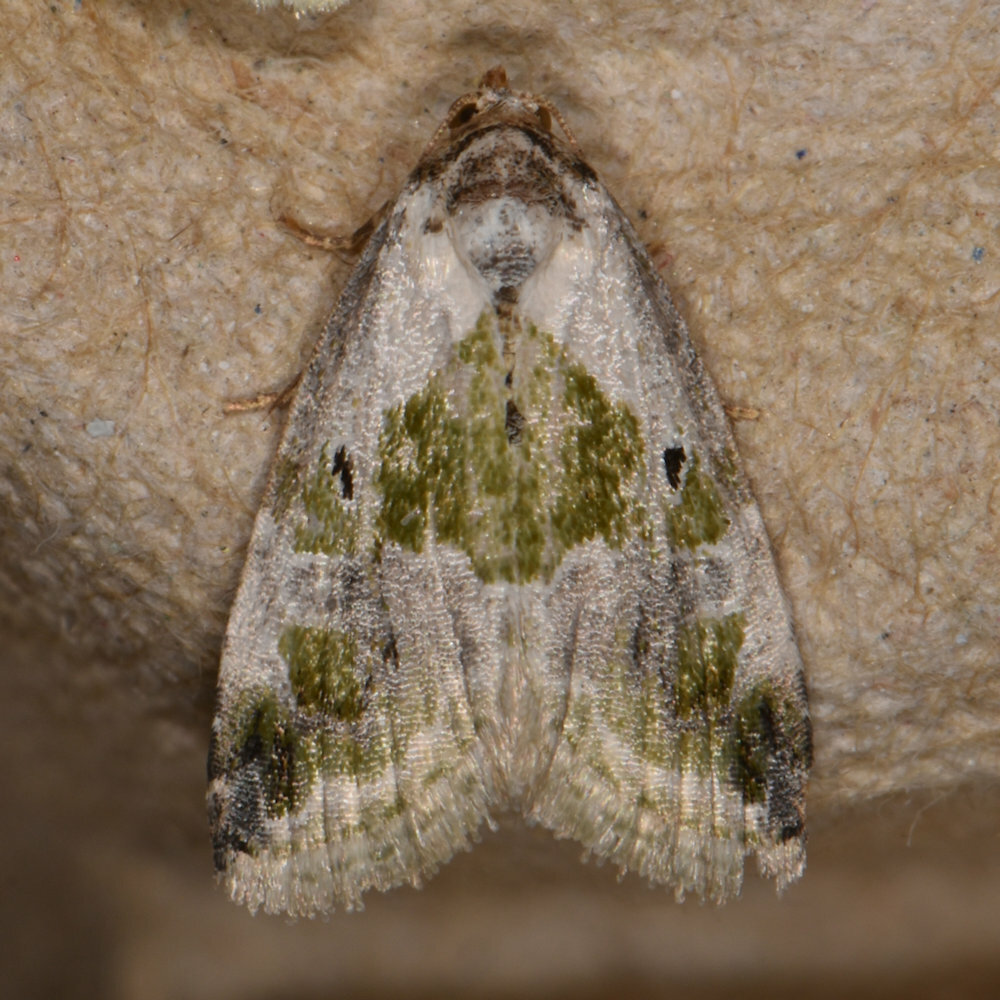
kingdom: Animalia
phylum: Arthropoda
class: Insecta
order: Lepidoptera
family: Noctuidae
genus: Maliattha
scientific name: Maliattha synochitis
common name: Black-dotted glyph
